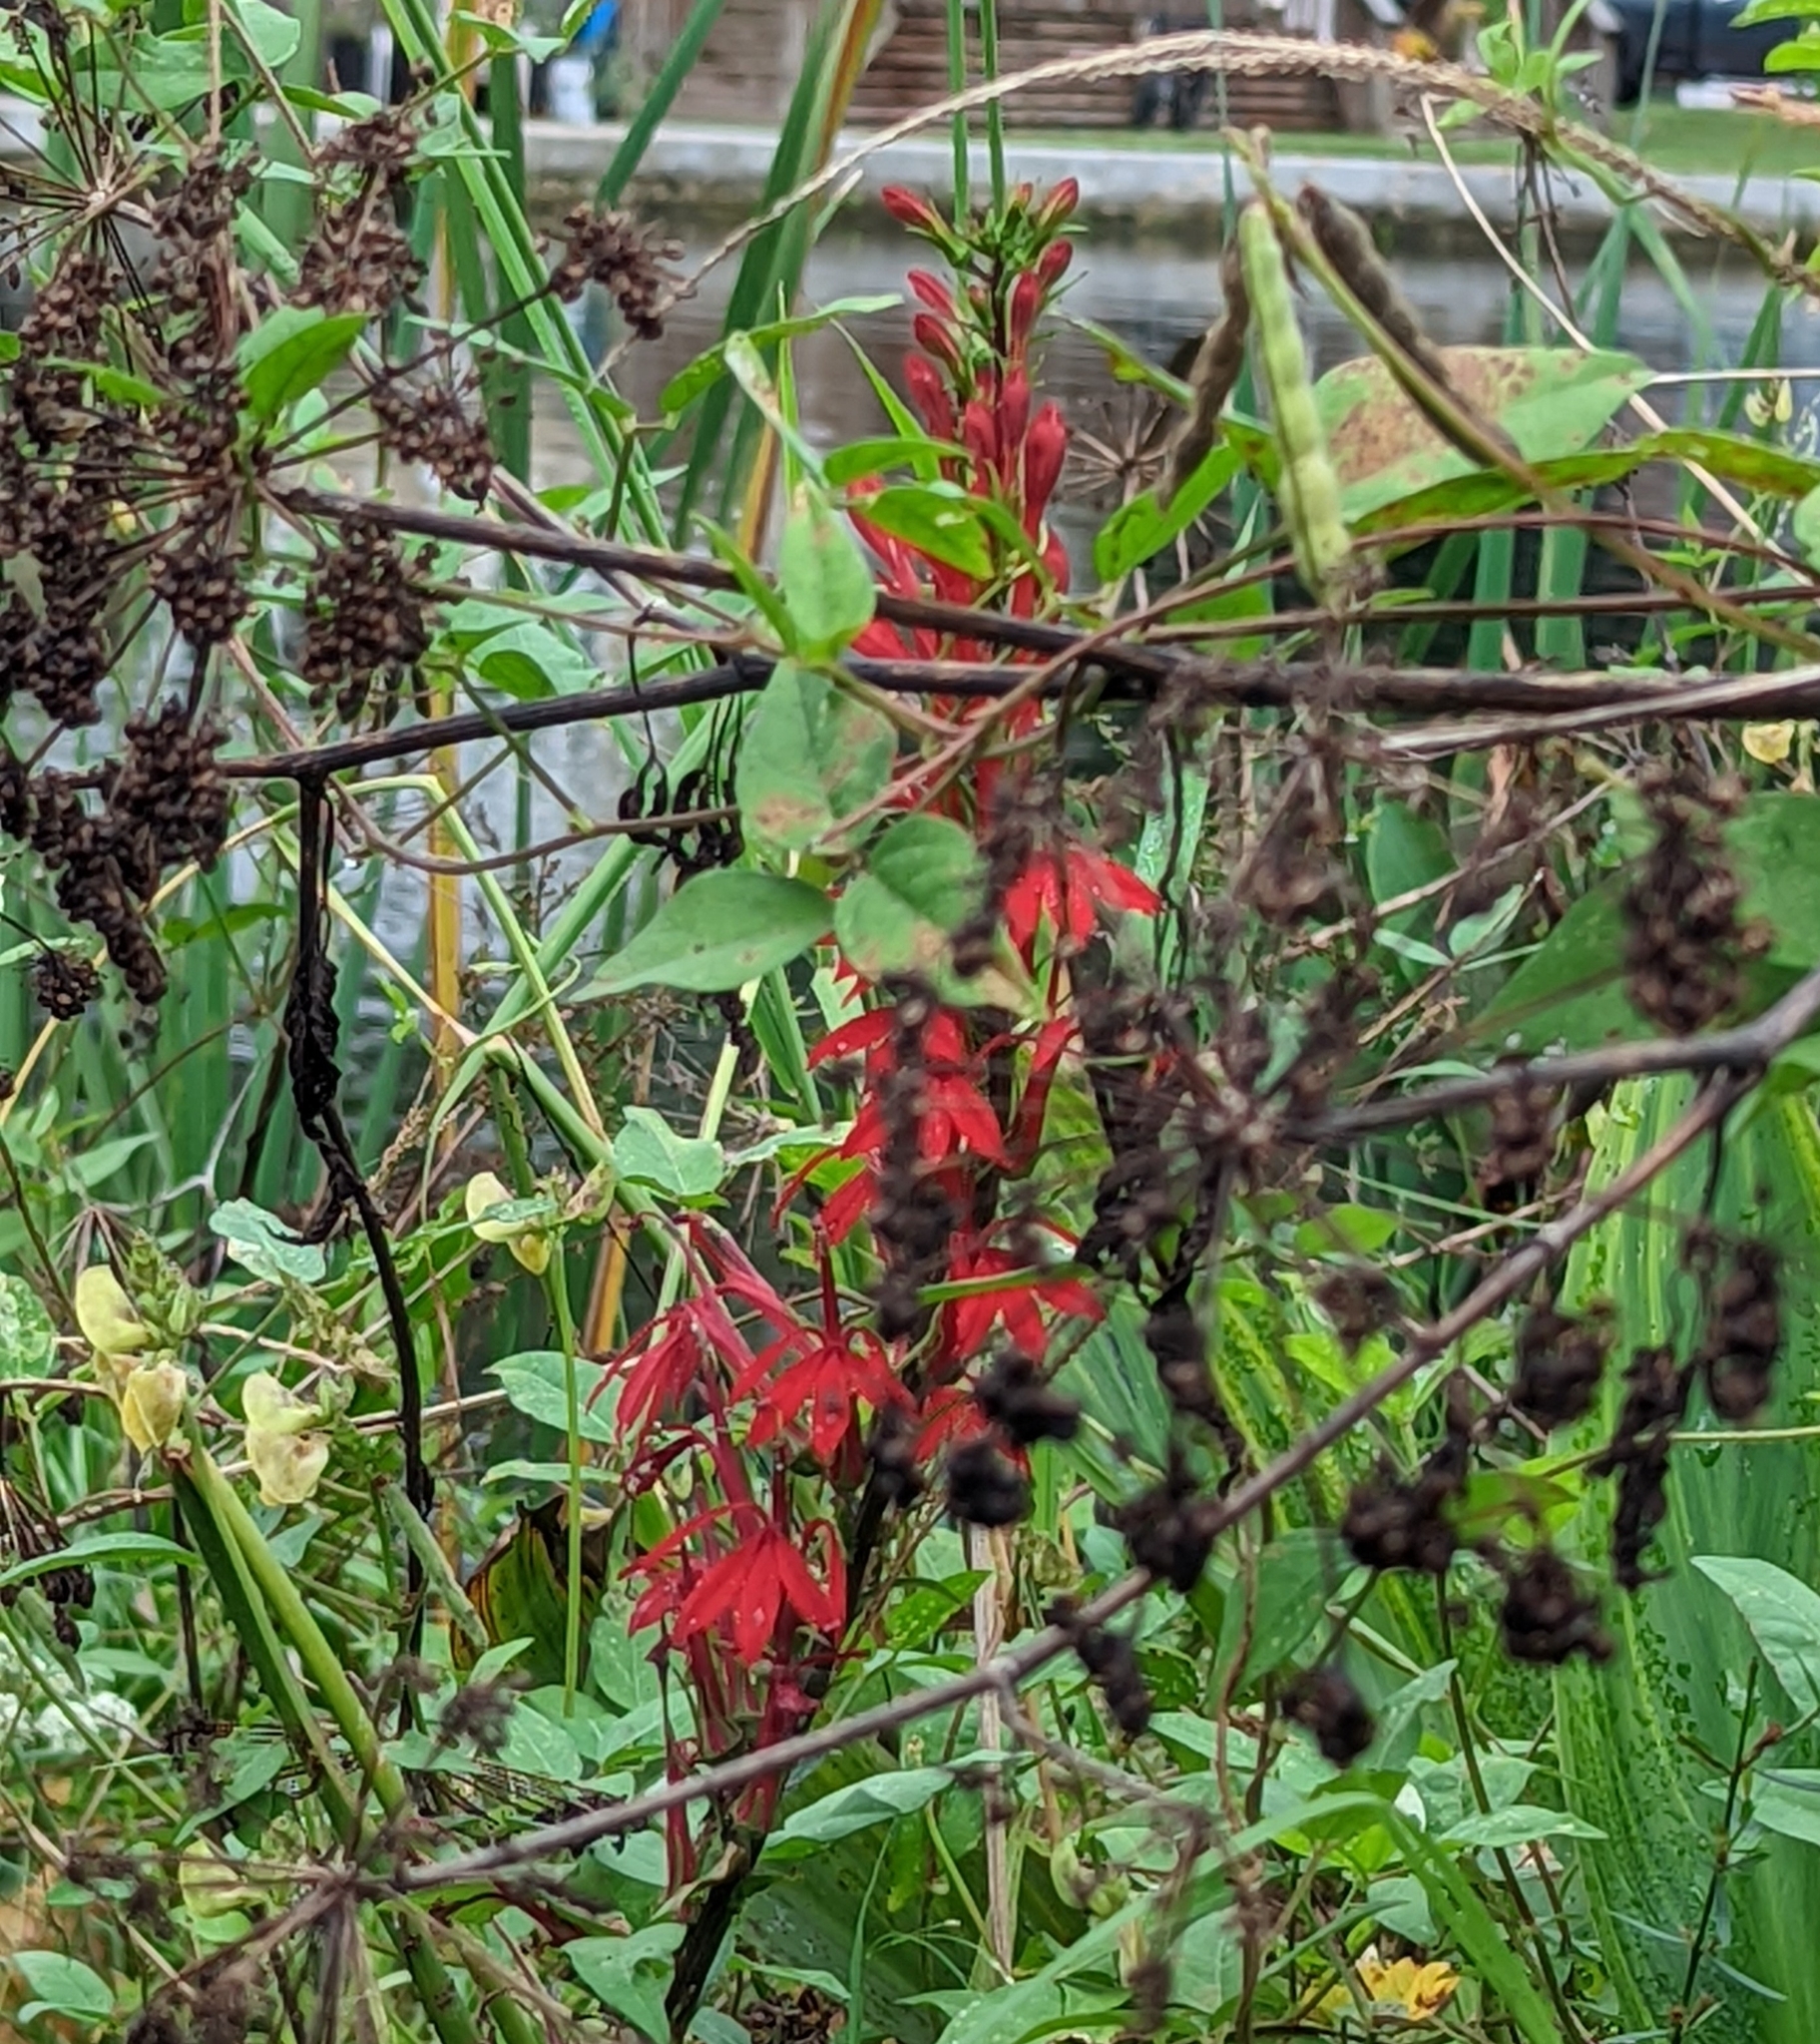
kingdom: Plantae
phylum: Tracheophyta
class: Magnoliopsida
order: Asterales
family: Campanulaceae
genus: Lobelia
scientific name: Lobelia cardinalis
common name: Cardinal flower
